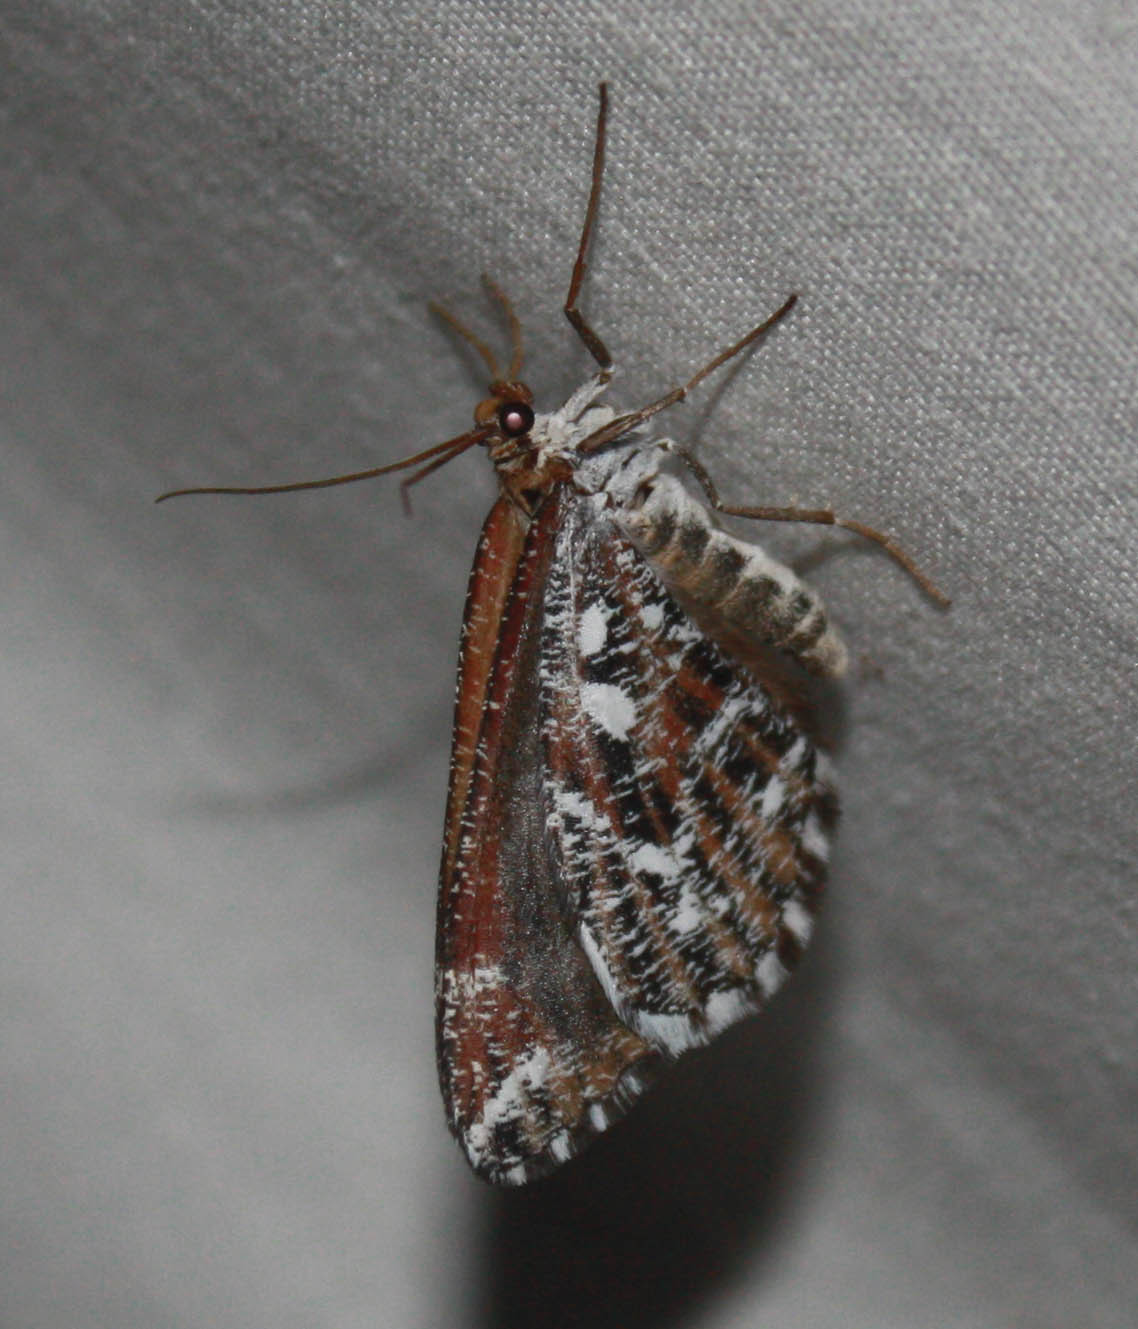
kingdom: Animalia
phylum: Arthropoda
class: Insecta
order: Lepidoptera
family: Geometridae
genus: Stamnodes
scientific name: Stamnodes marmorata
